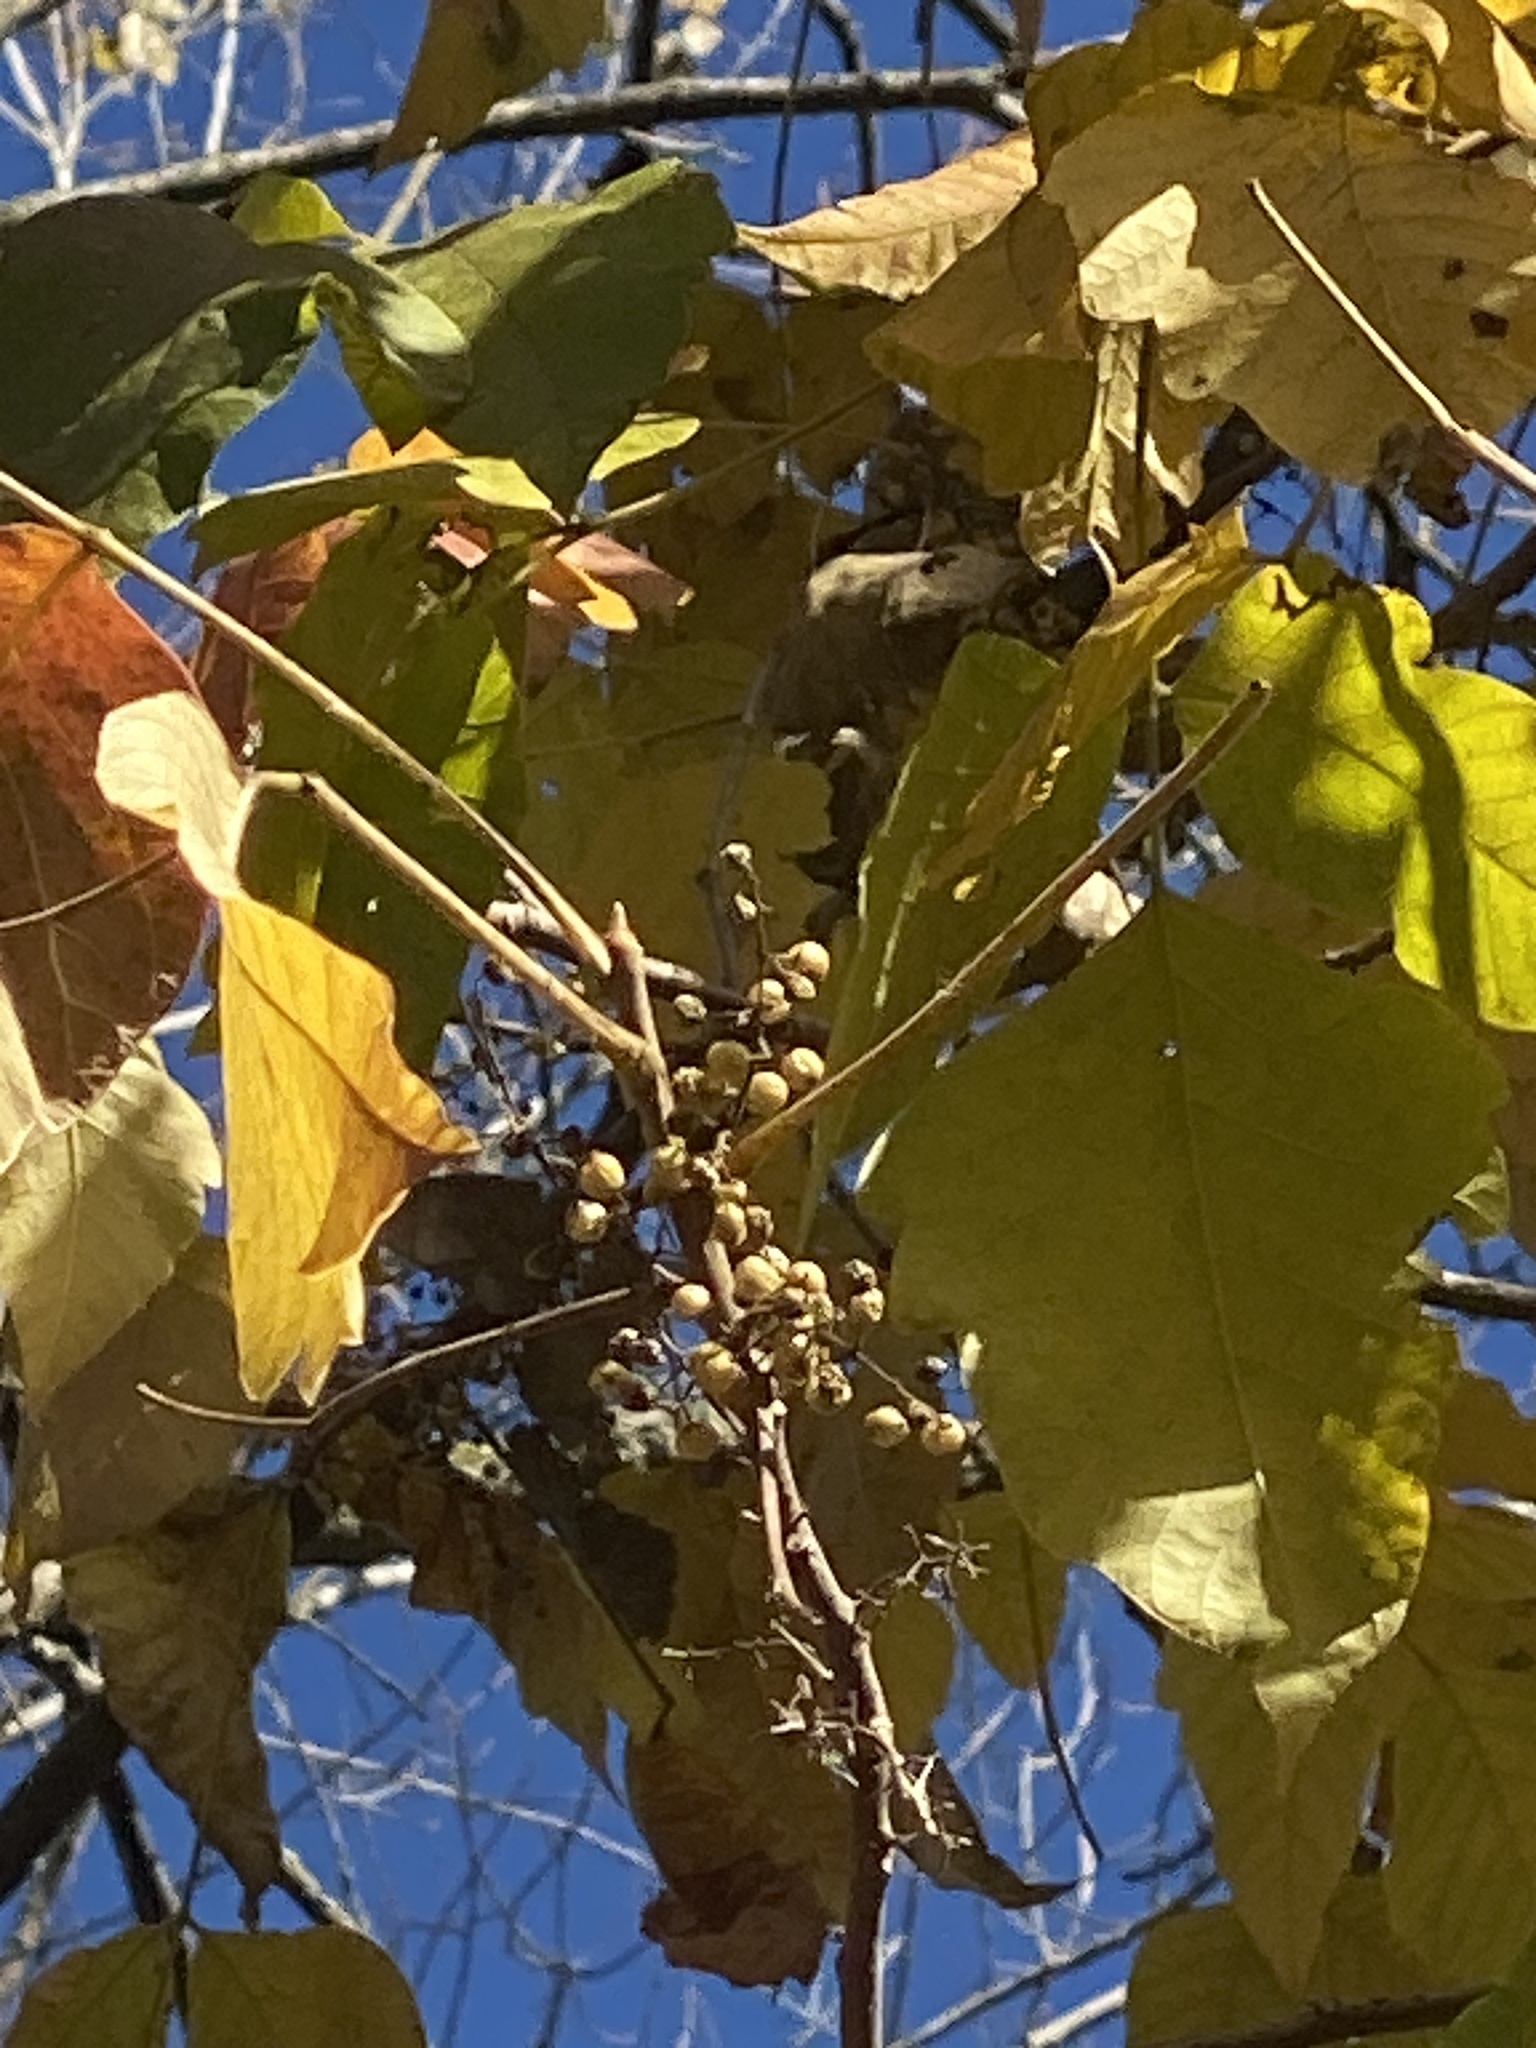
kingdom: Plantae
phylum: Tracheophyta
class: Magnoliopsida
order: Sapindales
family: Anacardiaceae
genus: Toxicodendron
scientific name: Toxicodendron radicans
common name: Poison ivy
